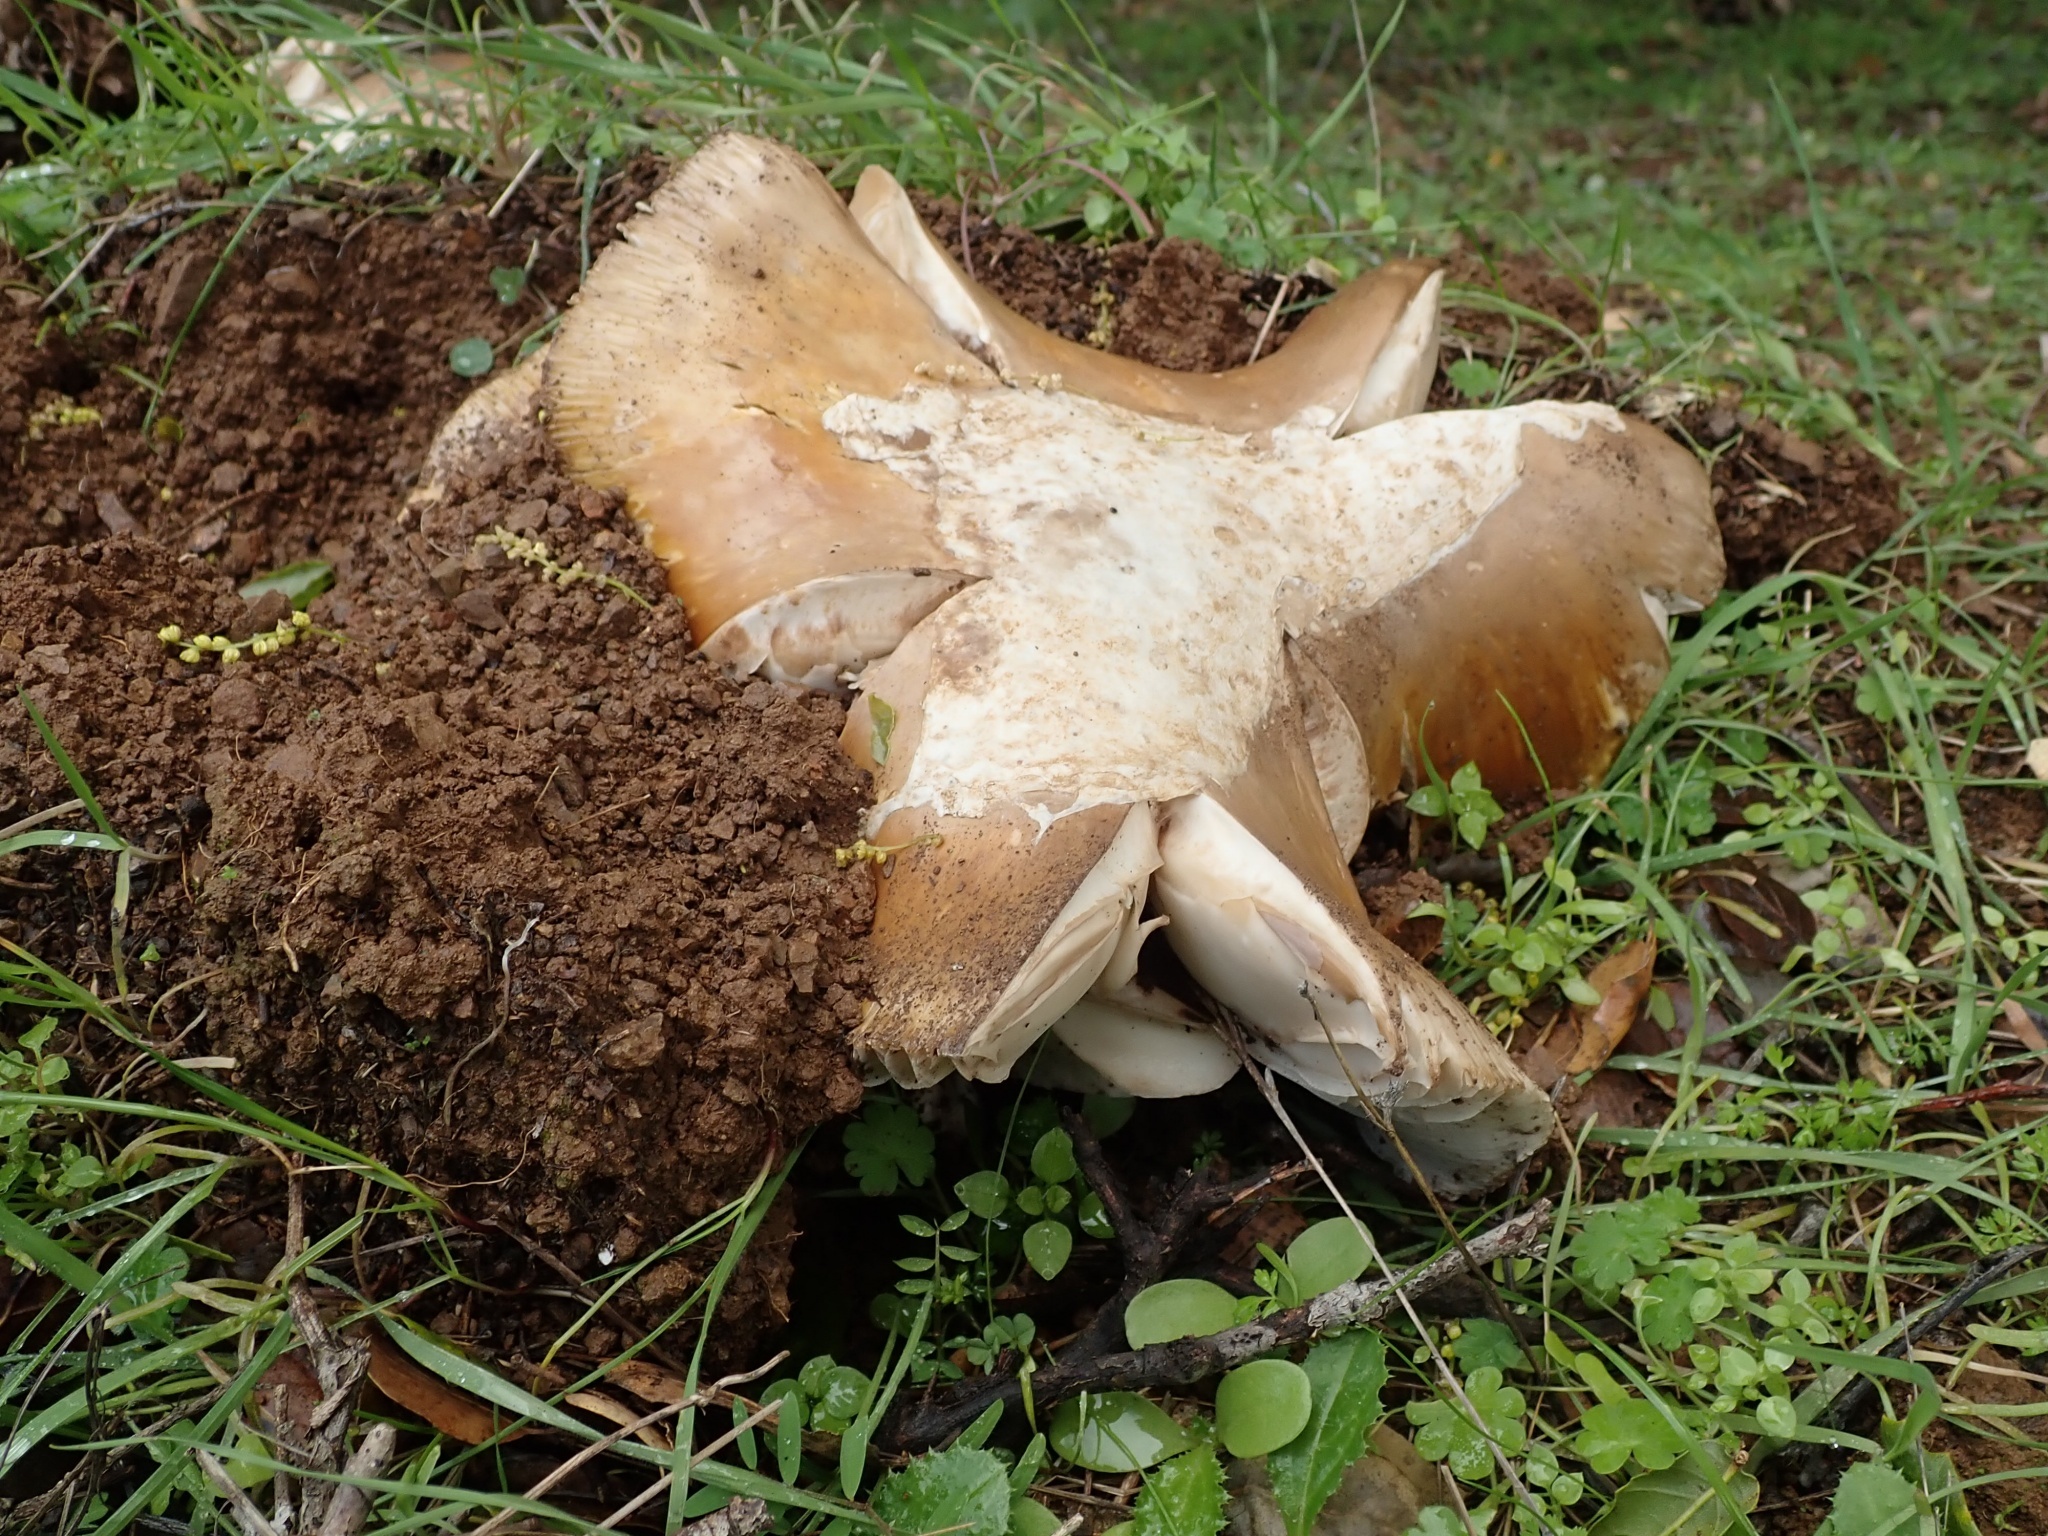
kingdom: Fungi
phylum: Basidiomycota
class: Agaricomycetes
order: Agaricales
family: Amanitaceae
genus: Amanita
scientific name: Amanita calyptroderma
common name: Coccora
